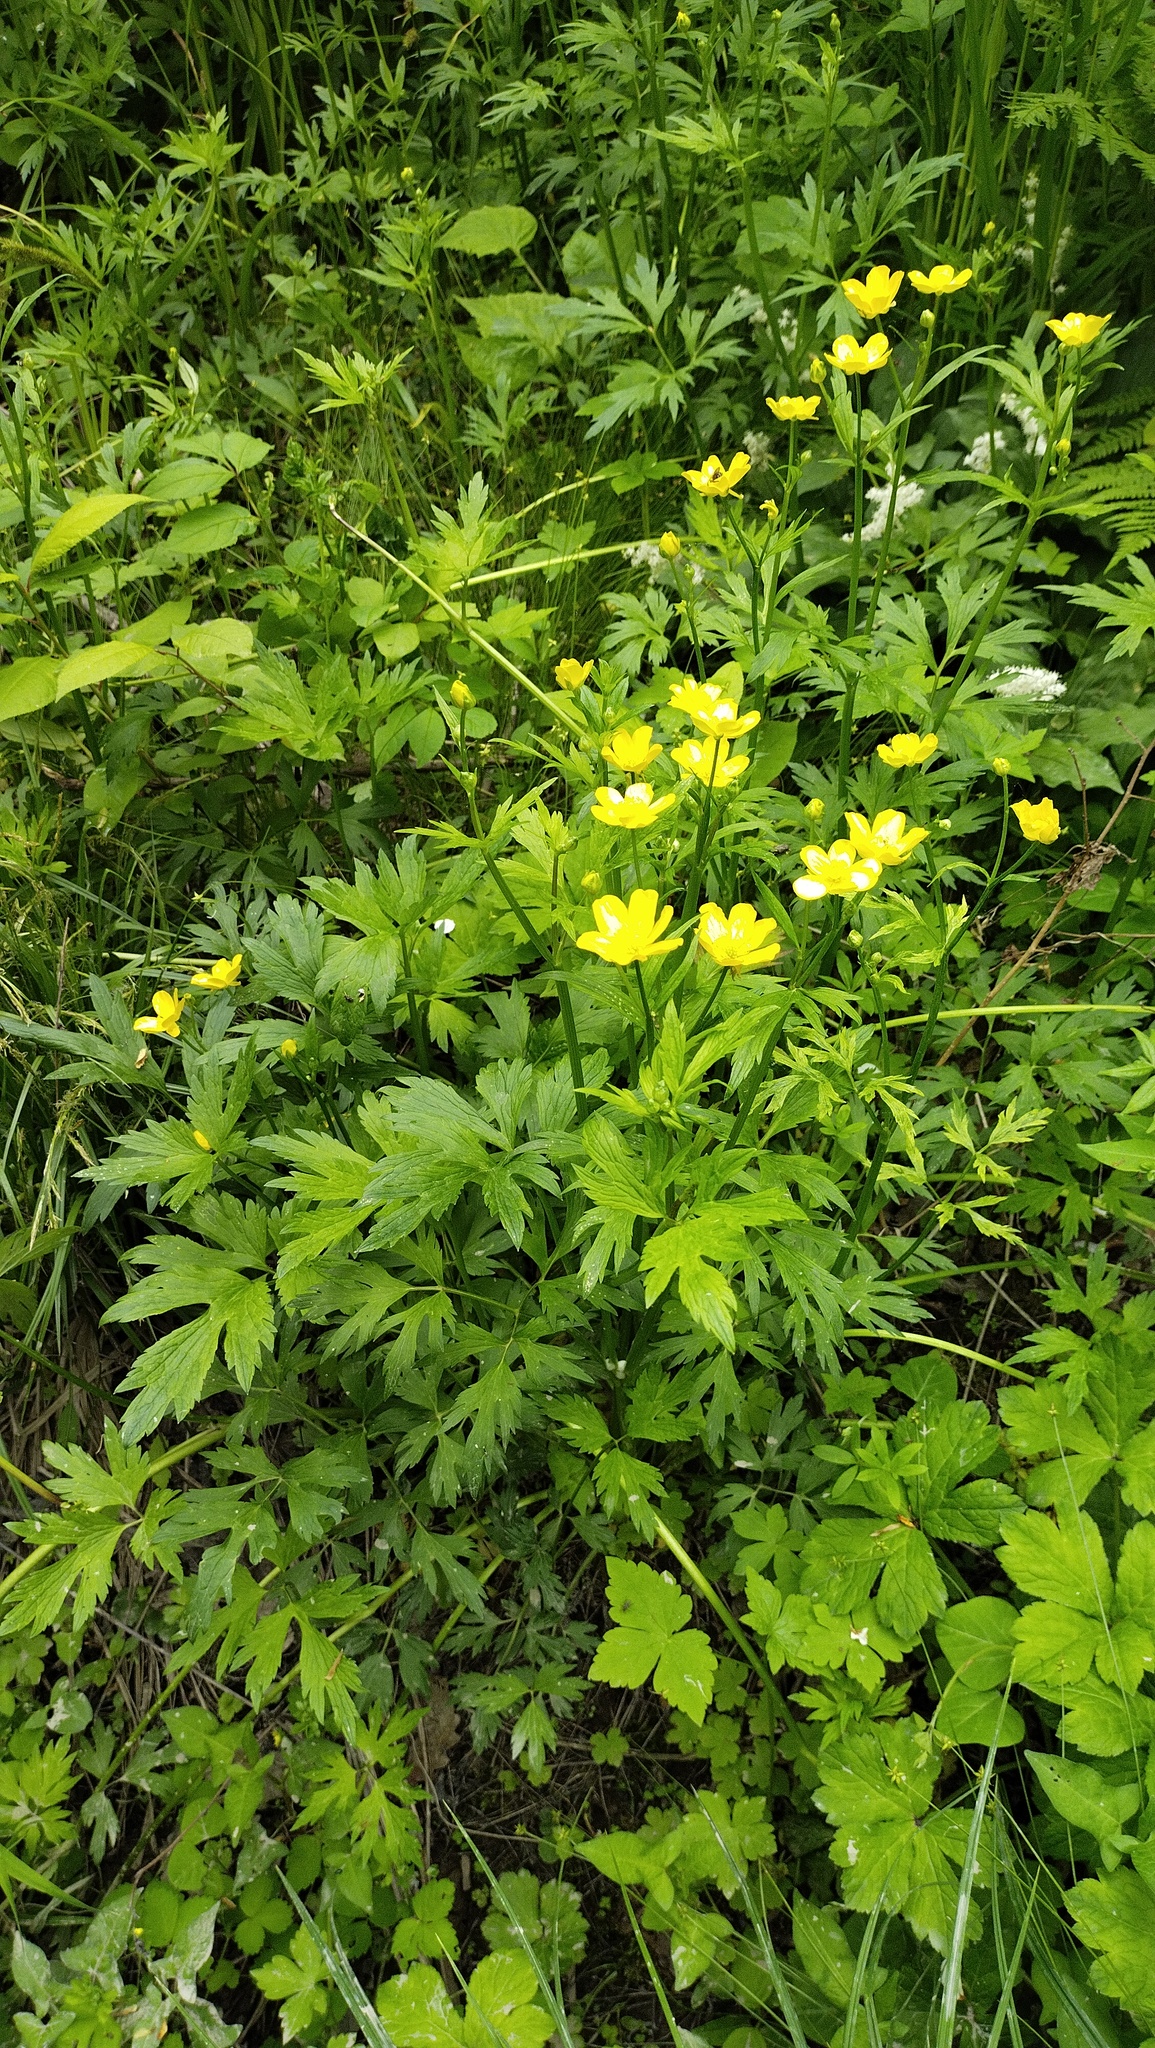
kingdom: Plantae
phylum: Tracheophyta
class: Magnoliopsida
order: Ranunculales
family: Ranunculaceae
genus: Ranunculus
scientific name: Ranunculus repens
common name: Creeping buttercup
